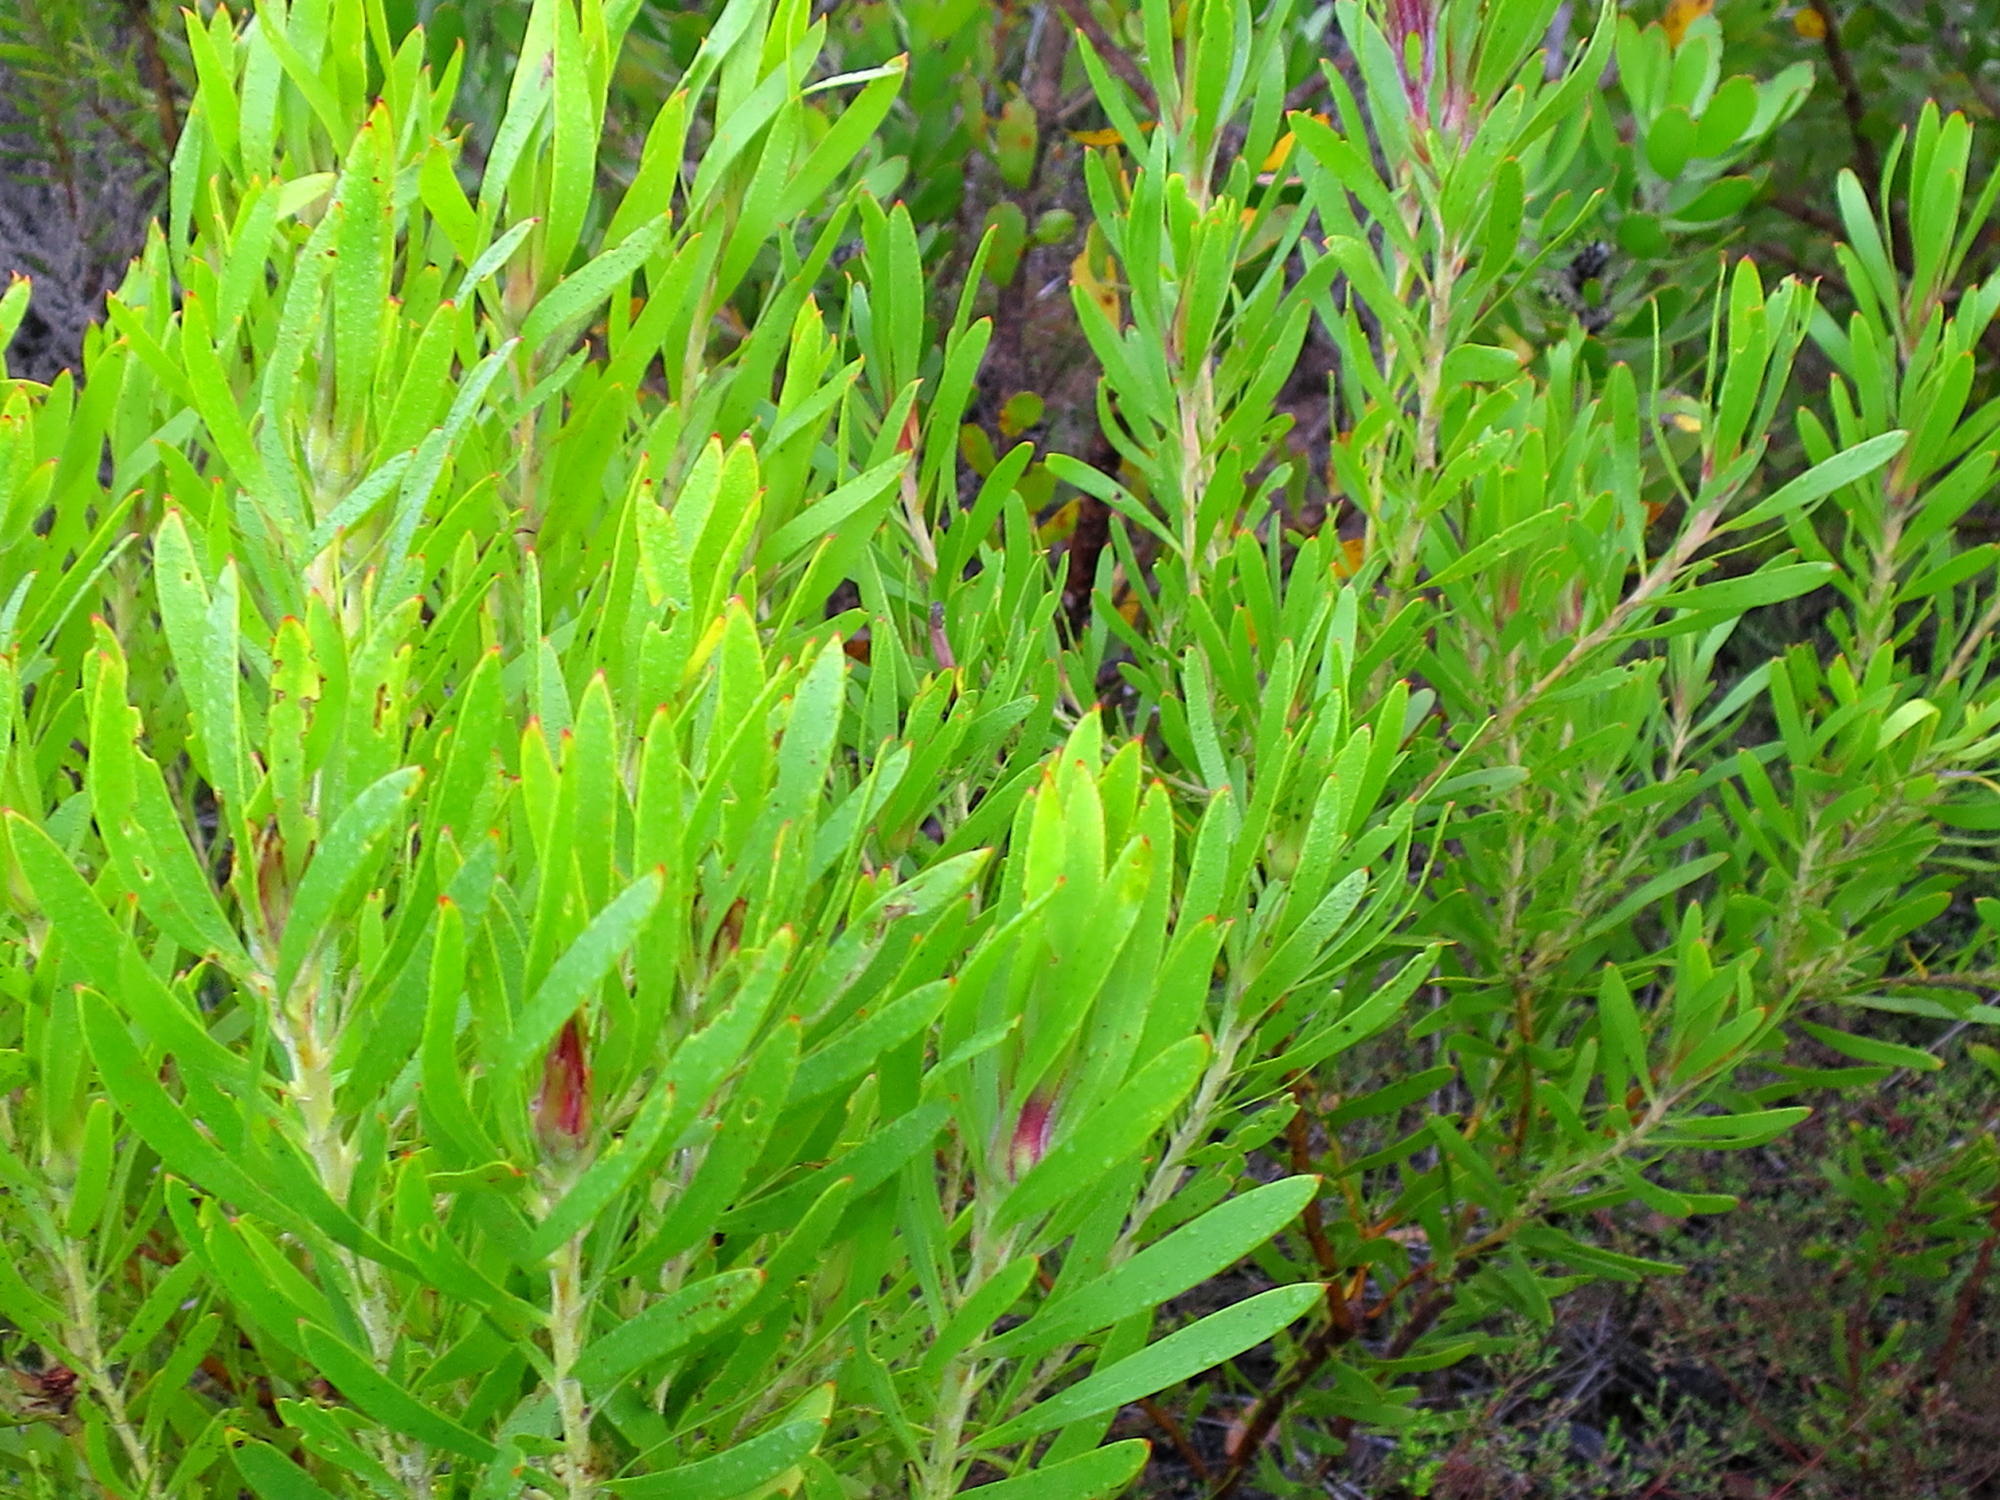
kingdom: Plantae
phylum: Tracheophyta
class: Magnoliopsida
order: Proteales
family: Proteaceae
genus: Leucadendron
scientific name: Leucadendron eucalyptifolium
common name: Gum-leaved conebush
